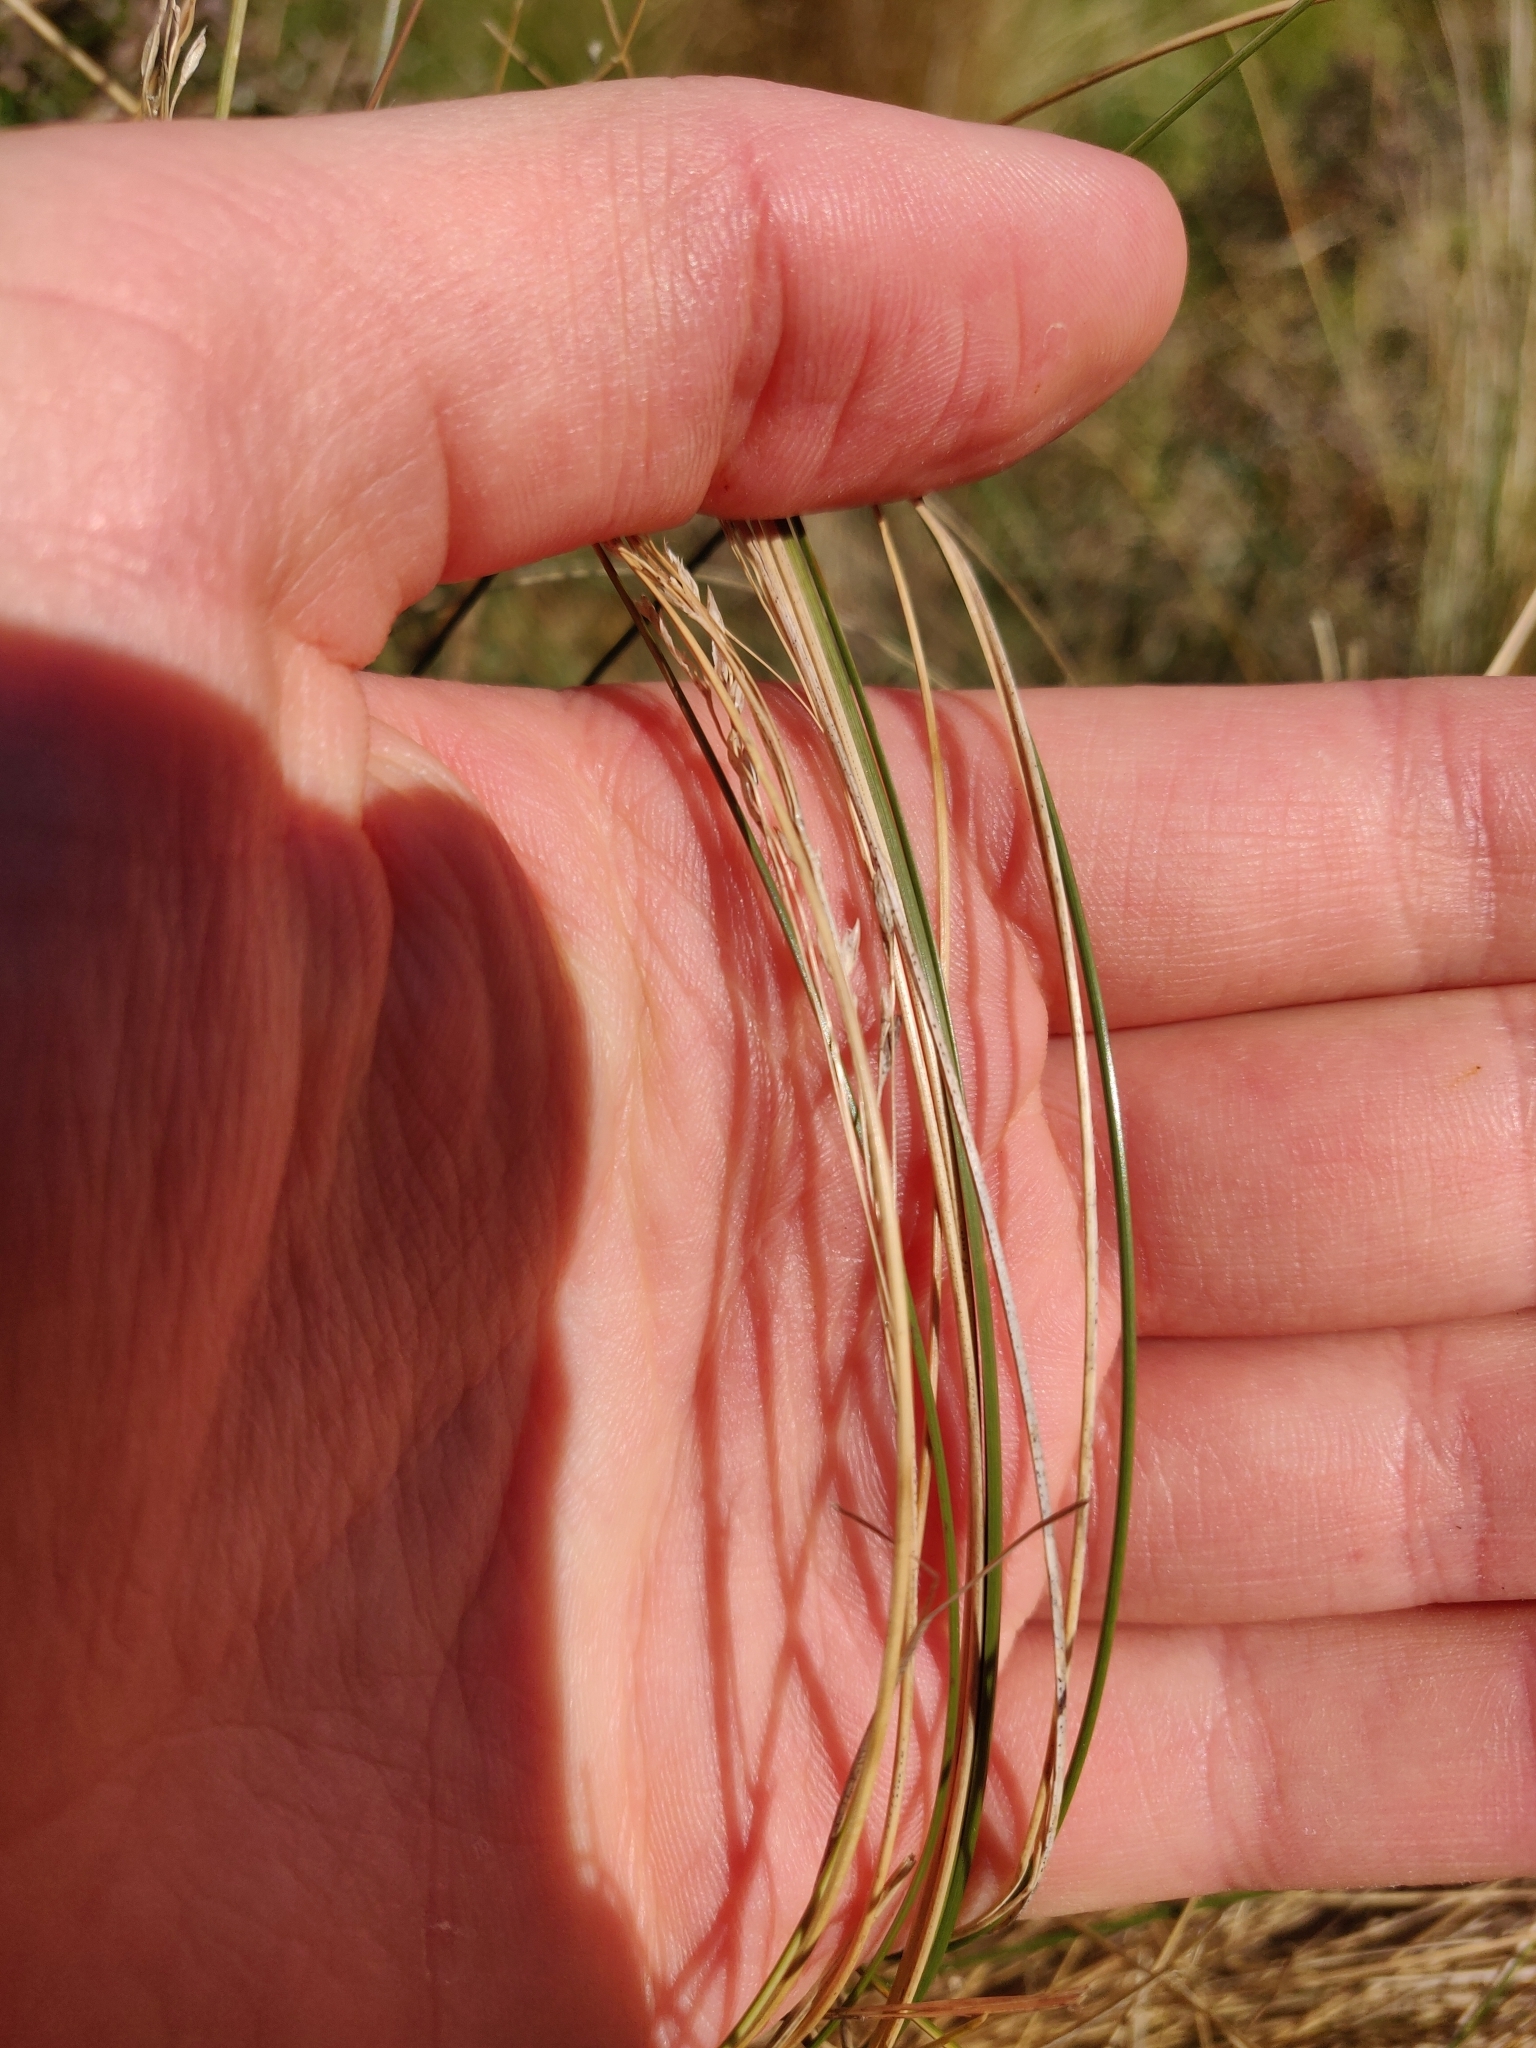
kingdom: Plantae
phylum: Tracheophyta
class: Liliopsida
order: Poales
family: Poaceae
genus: Poa
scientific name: Poa cita
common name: Silver tussock
